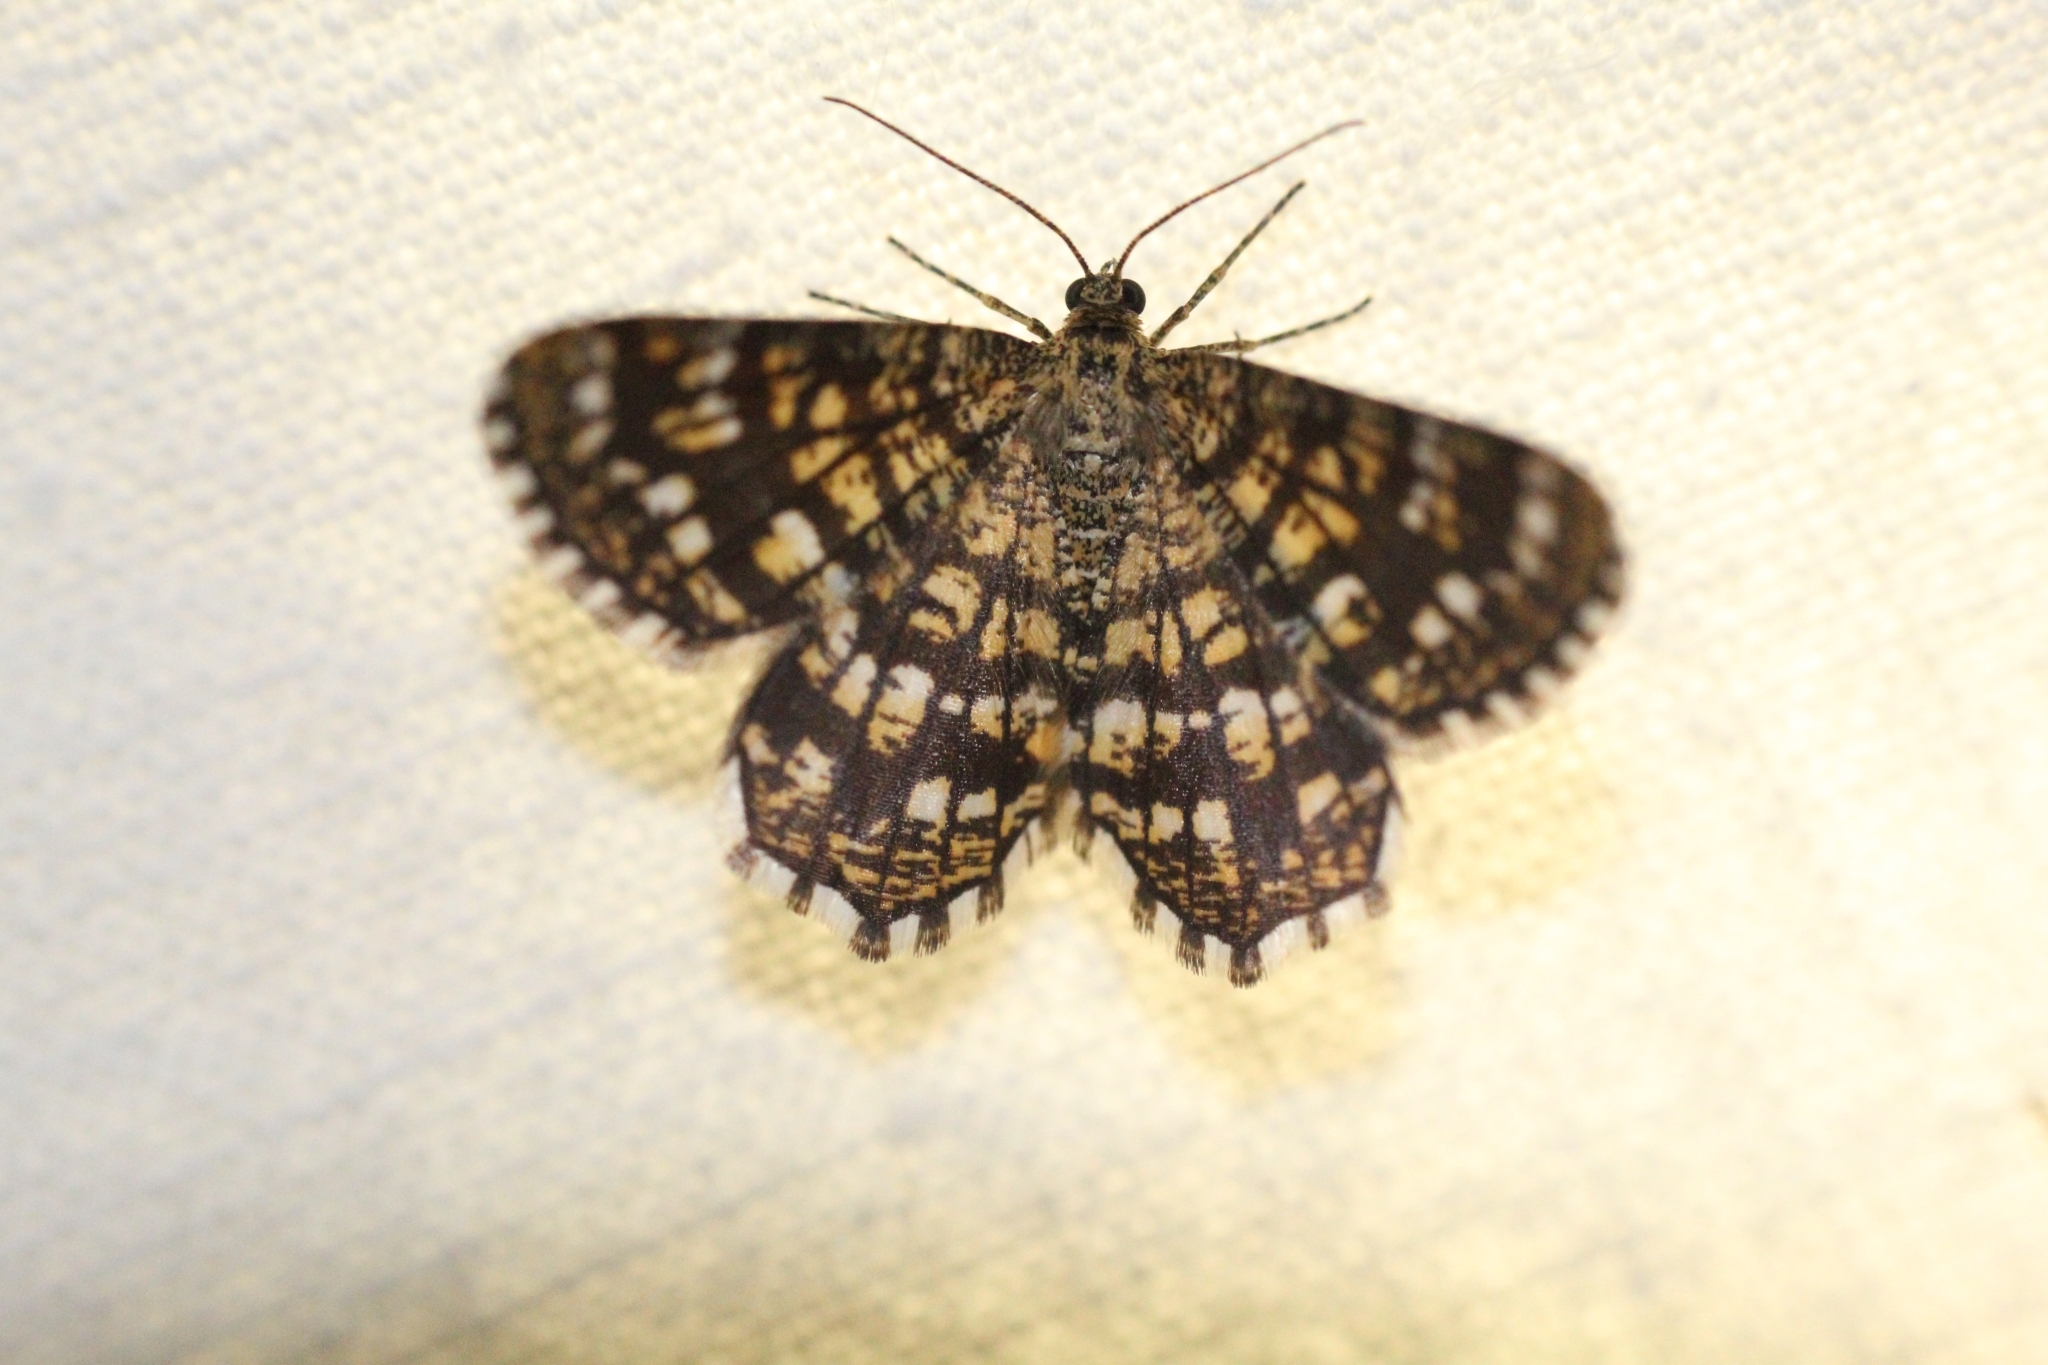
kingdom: Animalia
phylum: Arthropoda
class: Insecta
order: Lepidoptera
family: Geometridae
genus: Chiasmia
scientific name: Chiasmia clathrata
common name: Latticed heath
